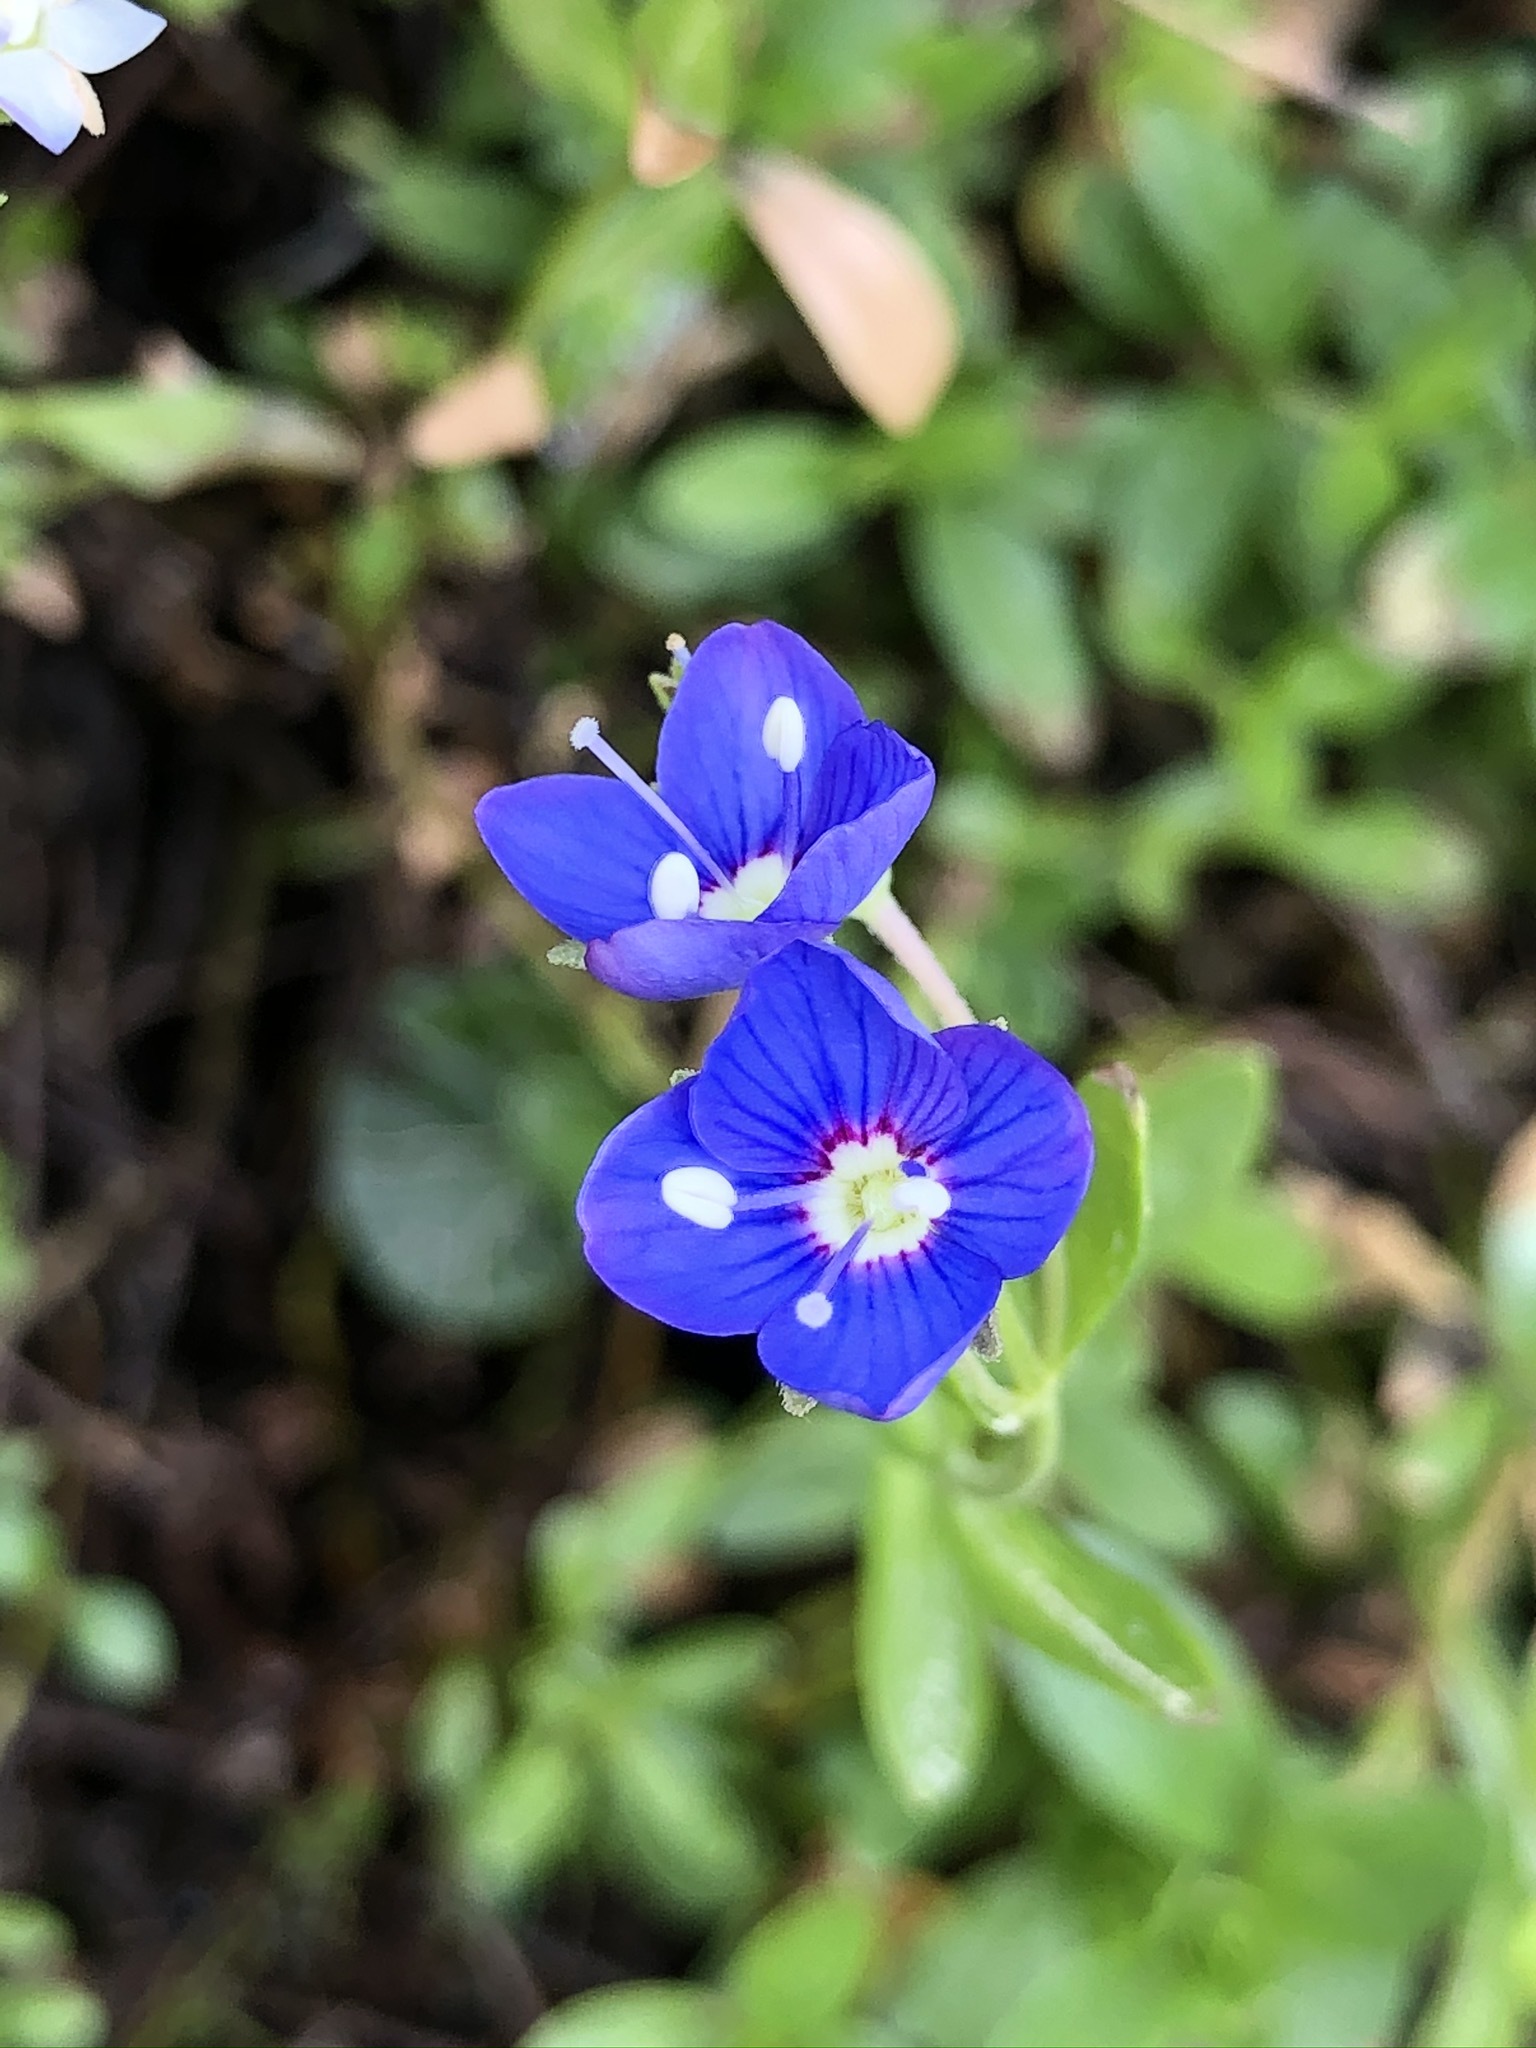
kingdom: Plantae
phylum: Tracheophyta
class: Magnoliopsida
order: Lamiales
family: Plantaginaceae
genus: Veronica
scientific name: Veronica fruticans
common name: Rock speedwell
